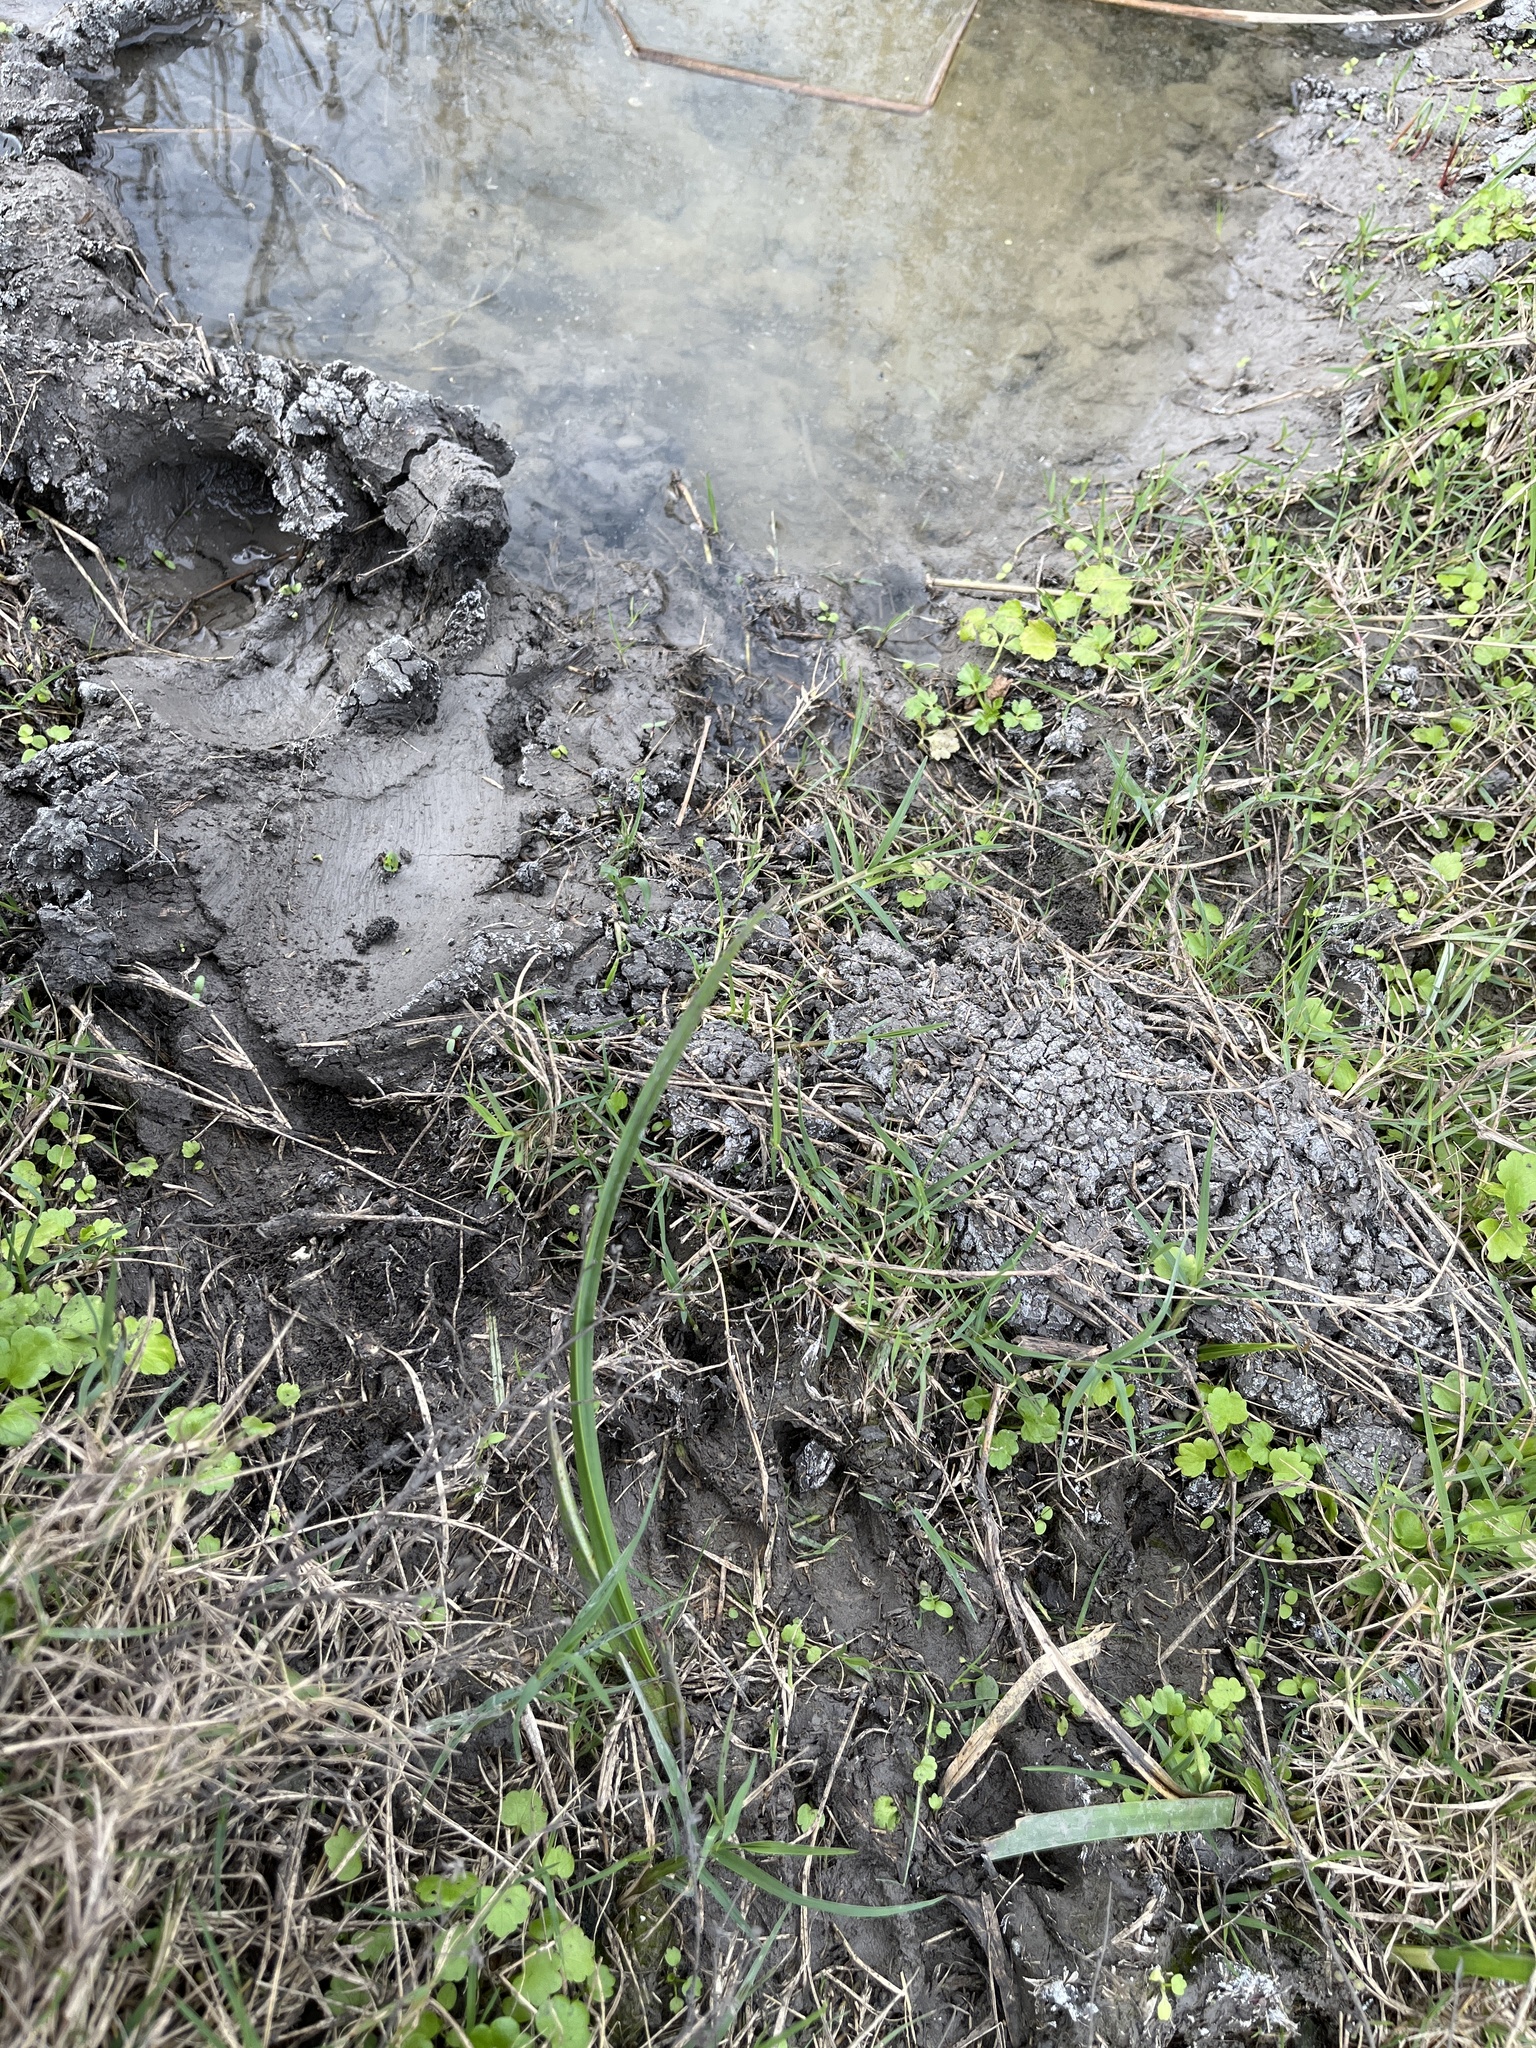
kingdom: Animalia
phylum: Chordata
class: Mammalia
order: Artiodactyla
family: Suidae
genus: Sus
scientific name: Sus scrofa
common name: Wild boar
